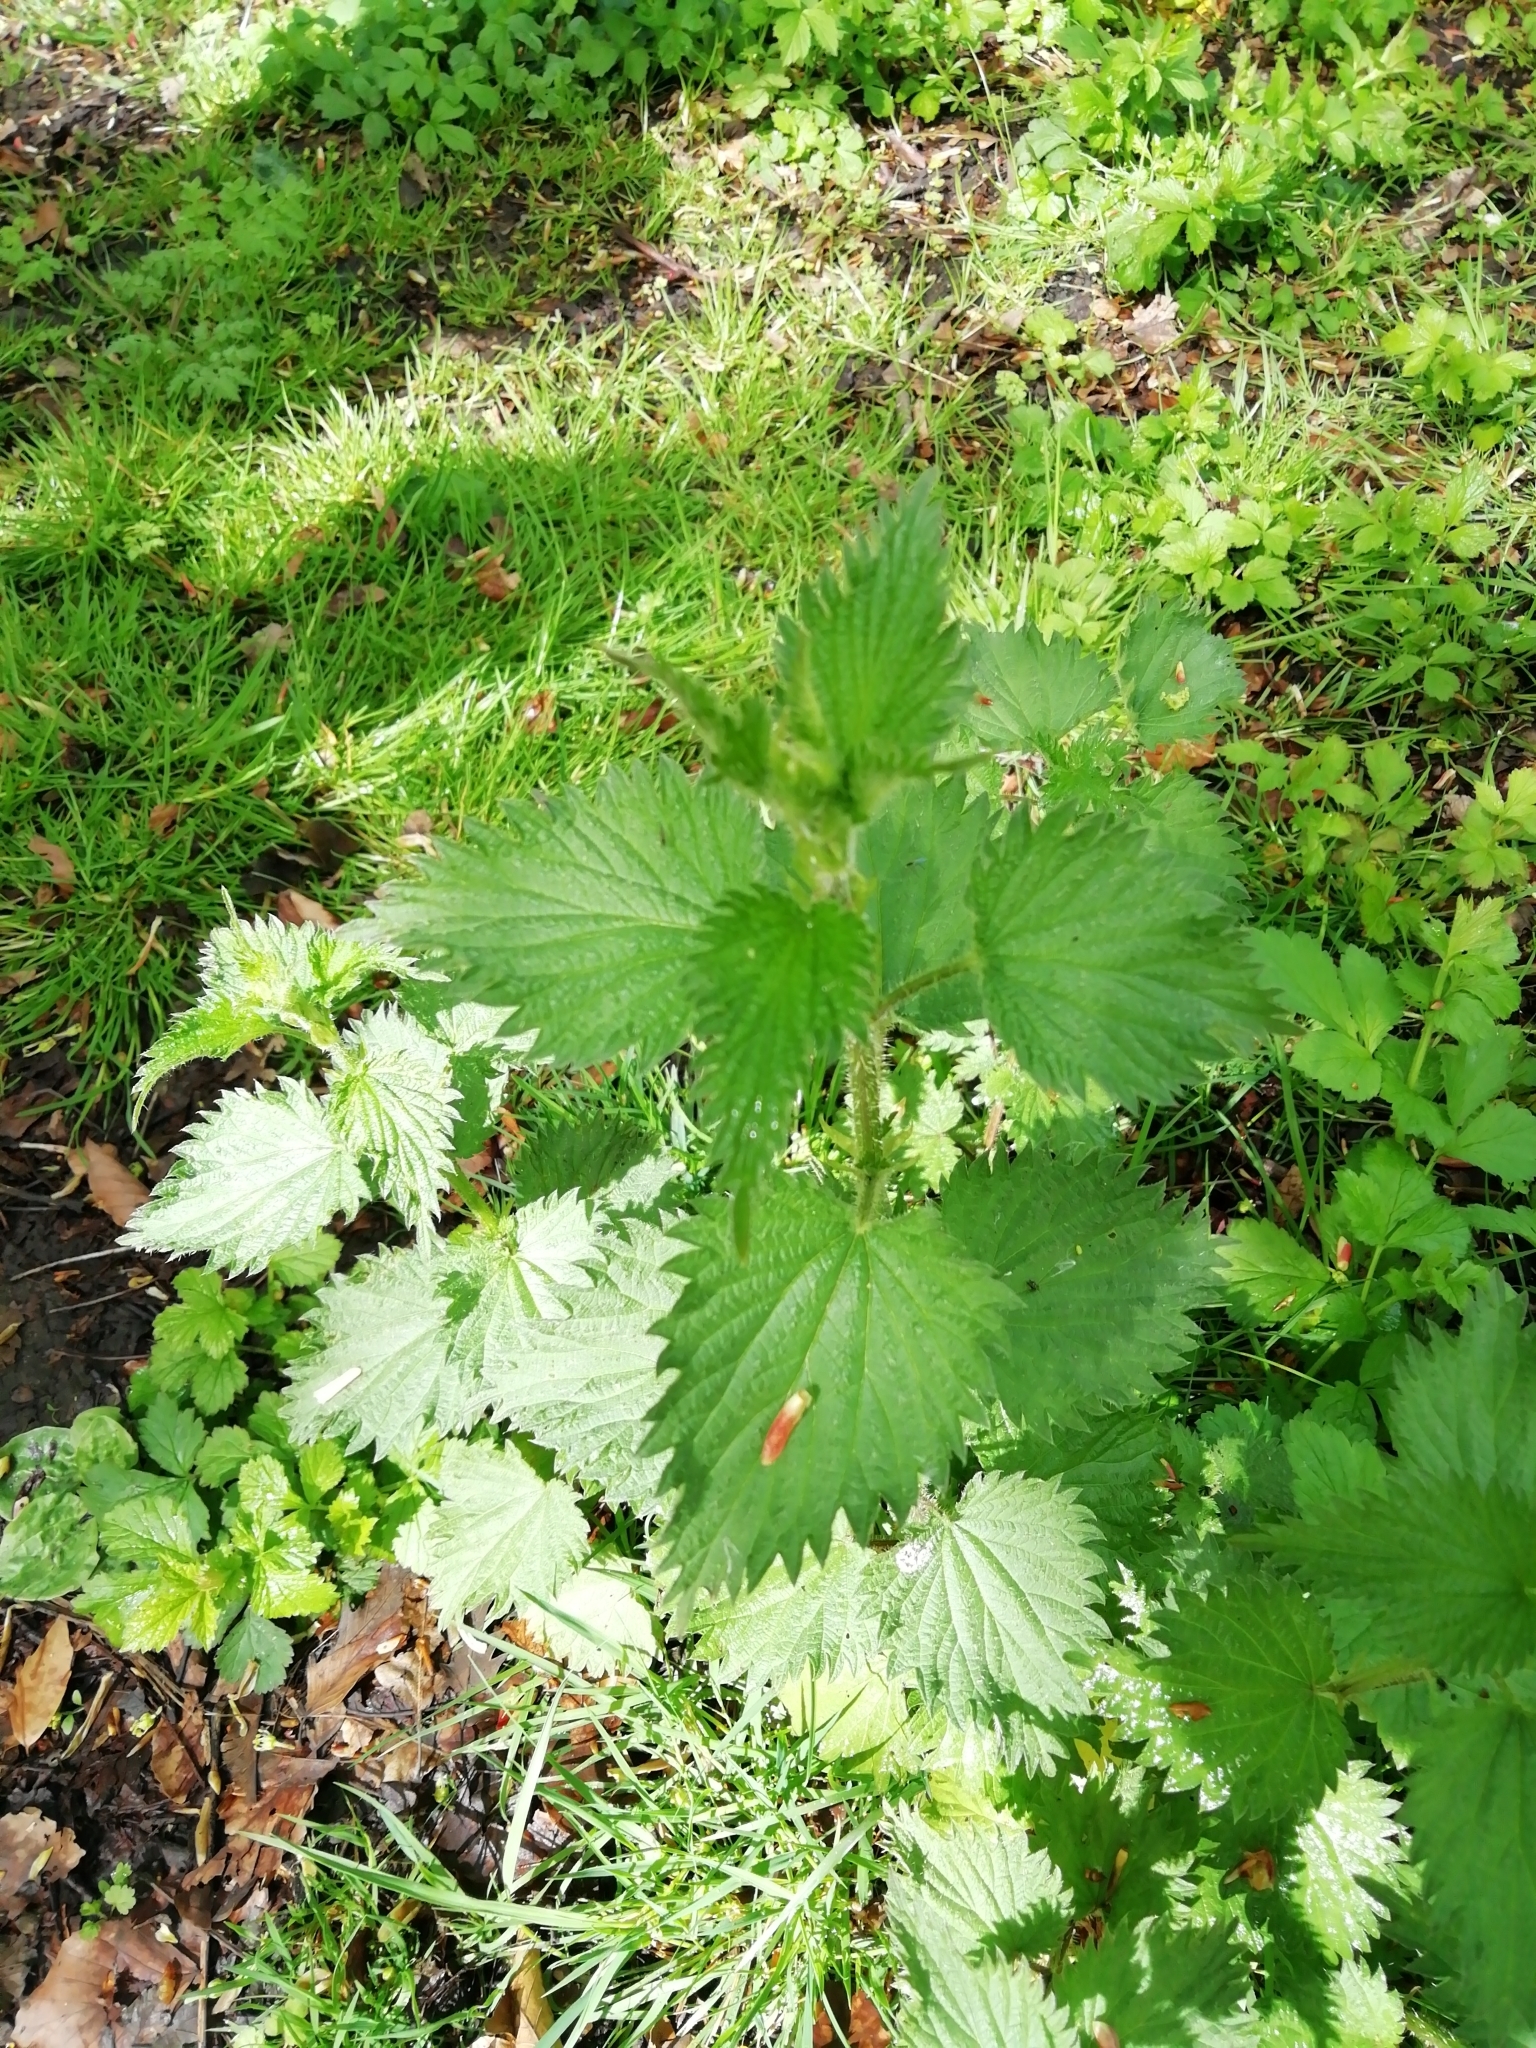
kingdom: Plantae
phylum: Tracheophyta
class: Magnoliopsida
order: Rosales
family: Urticaceae
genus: Urtica
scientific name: Urtica dioica
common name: Common nettle
